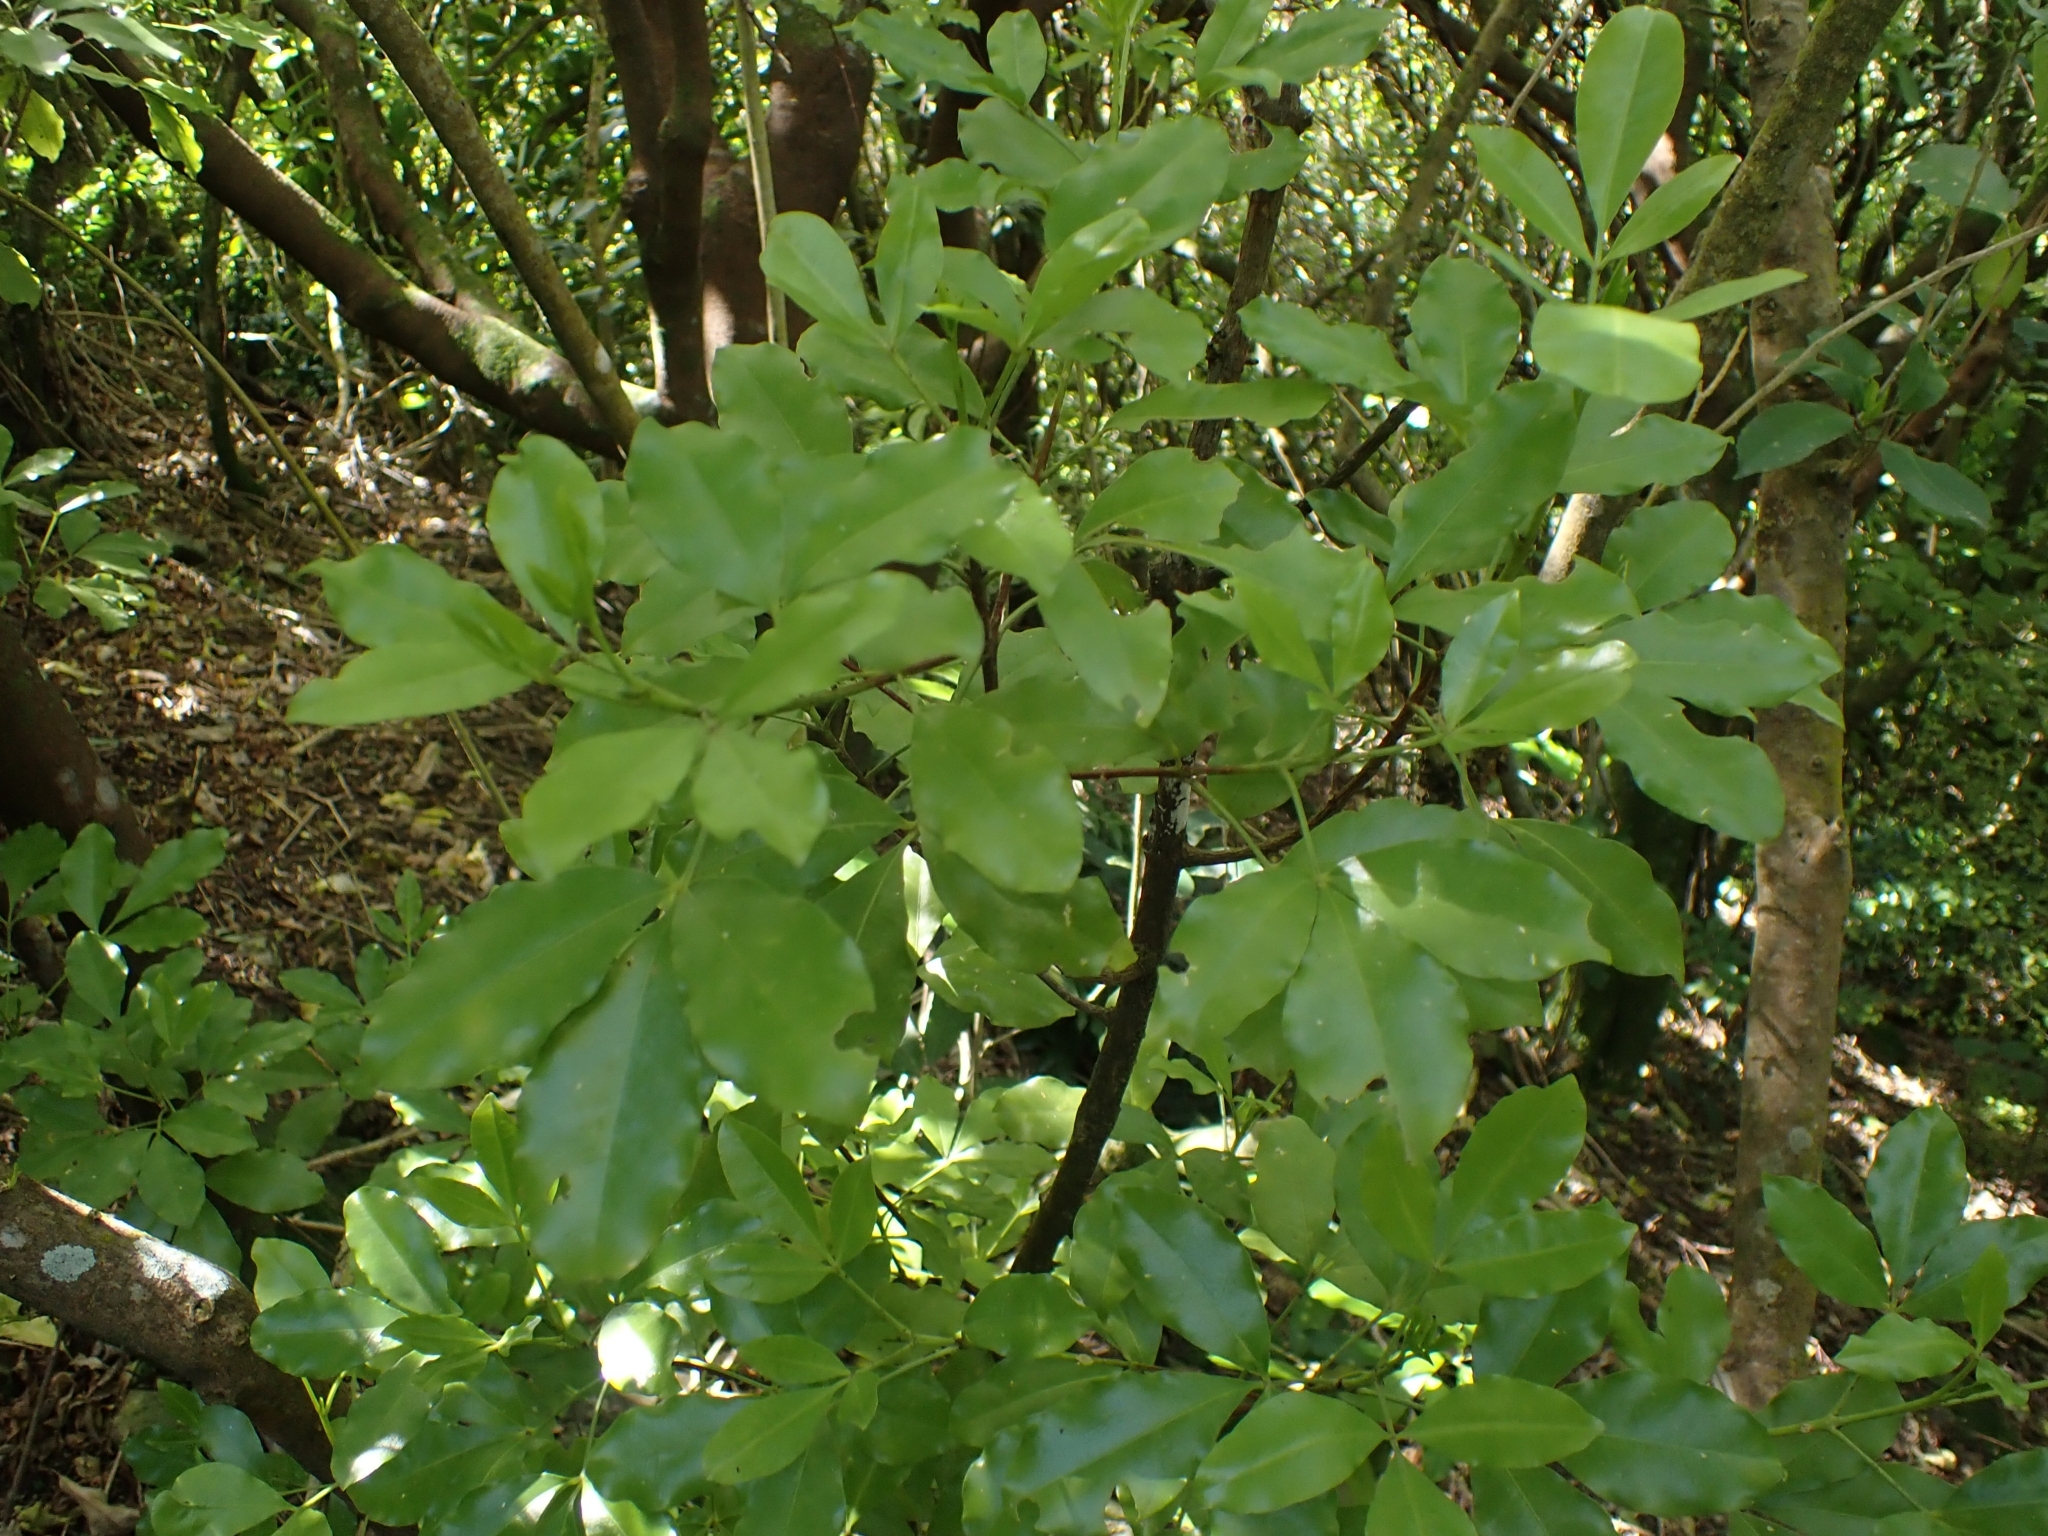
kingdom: Plantae
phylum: Tracheophyta
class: Magnoliopsida
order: Sapindales
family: Rutaceae
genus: Melicope
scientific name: Melicope ternata
